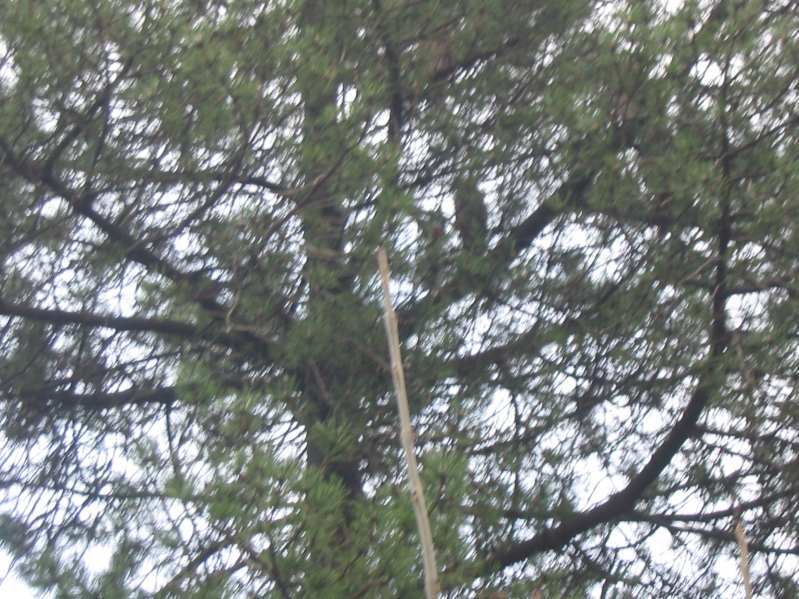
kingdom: Animalia
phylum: Chordata
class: Aves
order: Strigiformes
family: Strigidae
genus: Asio
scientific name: Asio otus
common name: Long-eared owl
